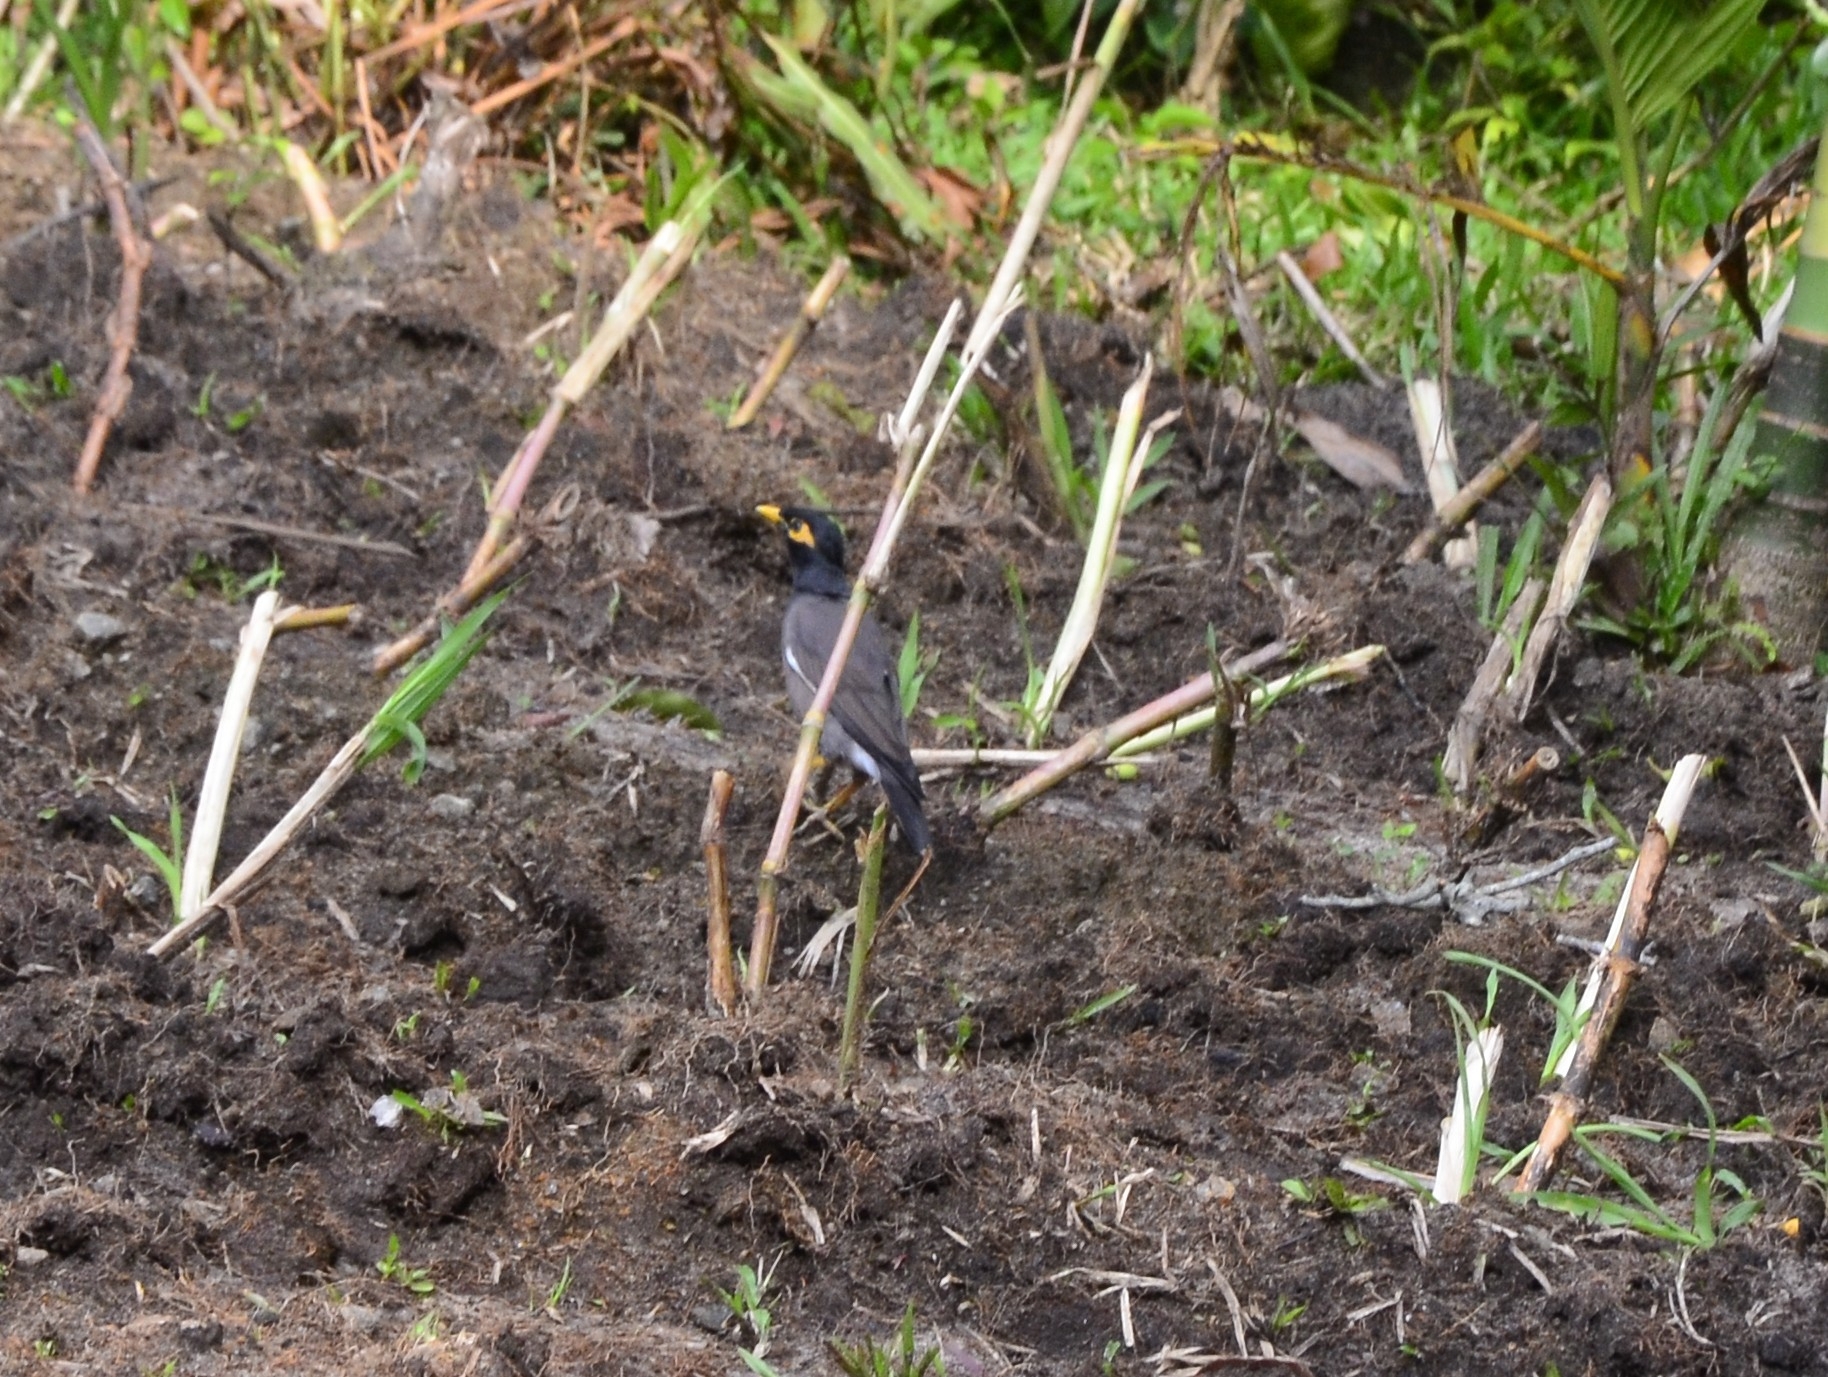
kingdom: Animalia
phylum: Chordata
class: Aves
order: Passeriformes
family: Sturnidae
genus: Acridotheres
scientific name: Acridotheres tristis
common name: Common myna
